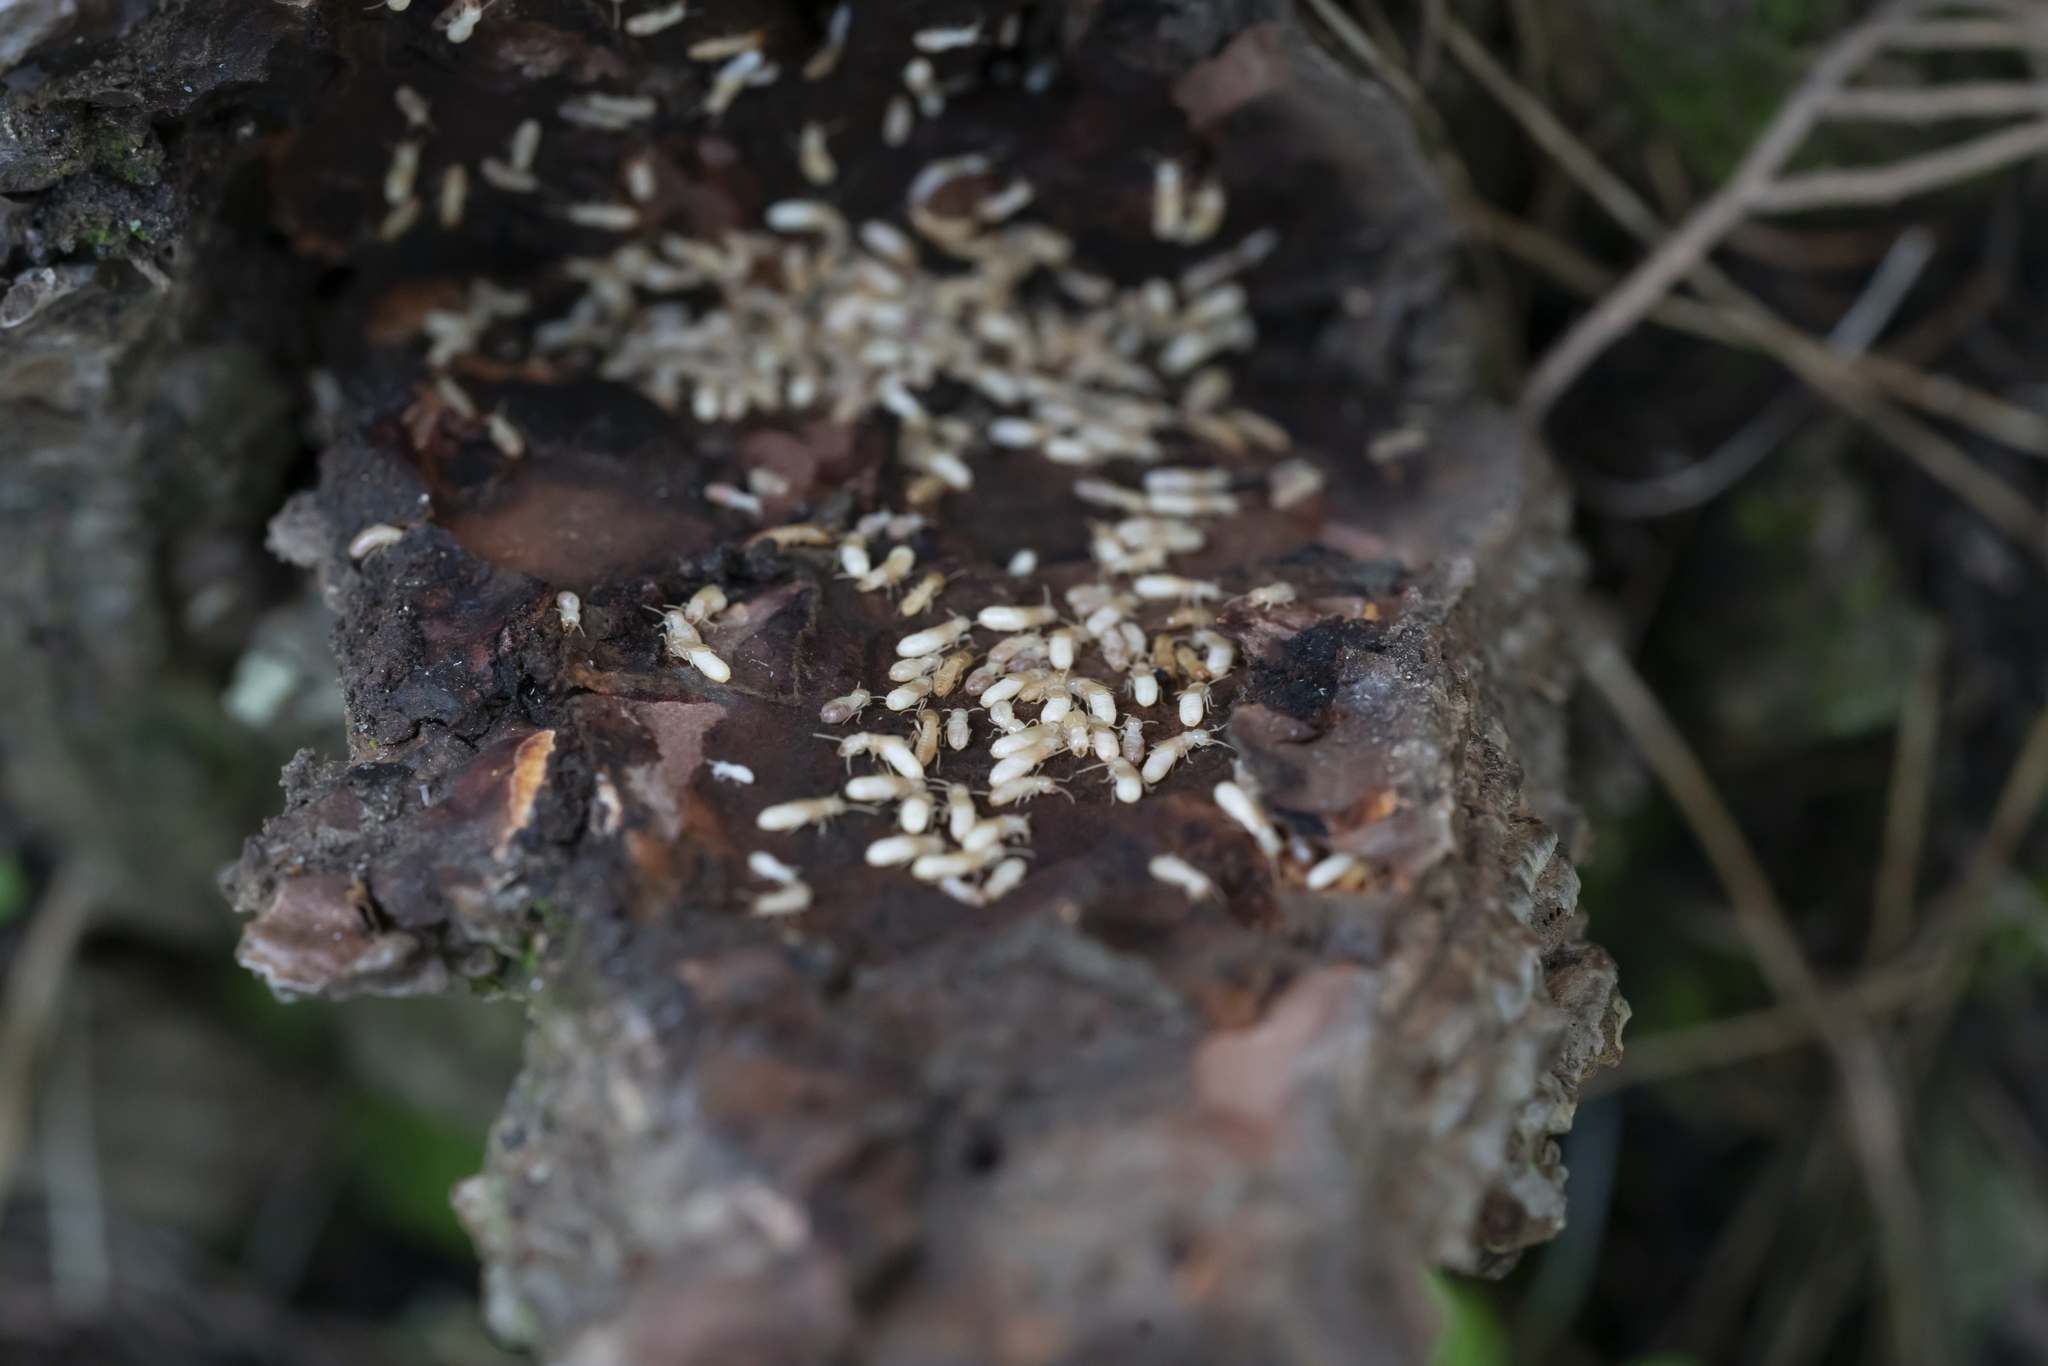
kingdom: Animalia
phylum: Arthropoda
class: Insecta
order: Blattodea
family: Rhinotermitidae
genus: Reticulitermes
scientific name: Reticulitermes
